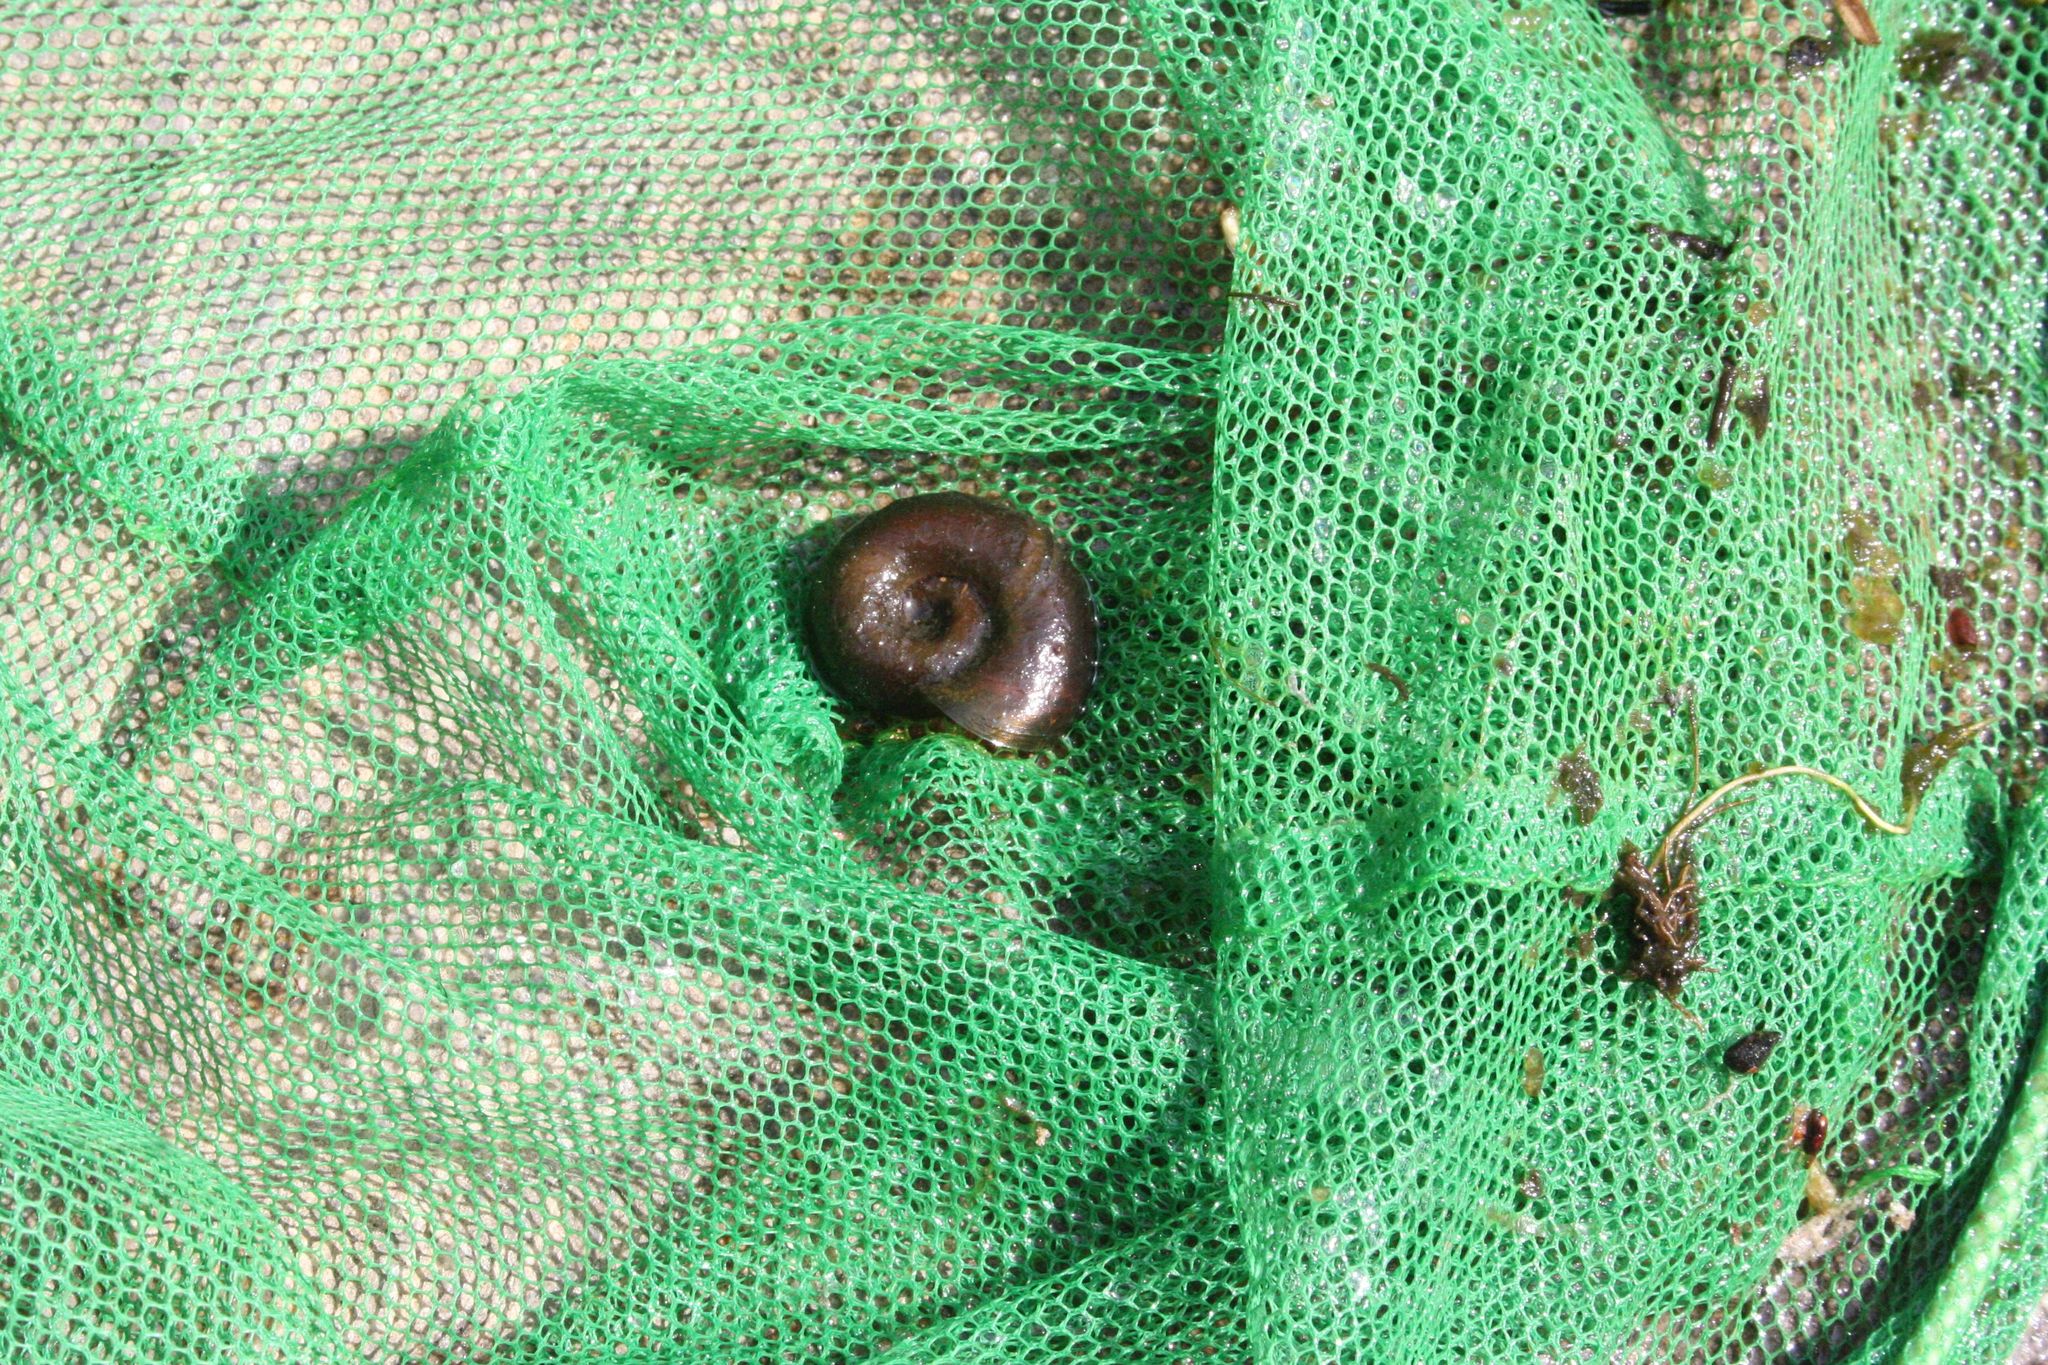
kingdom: Animalia
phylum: Mollusca
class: Gastropoda
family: Planorbidae
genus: Planorbarius
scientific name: Planorbarius corneus
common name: Great ramshorn
